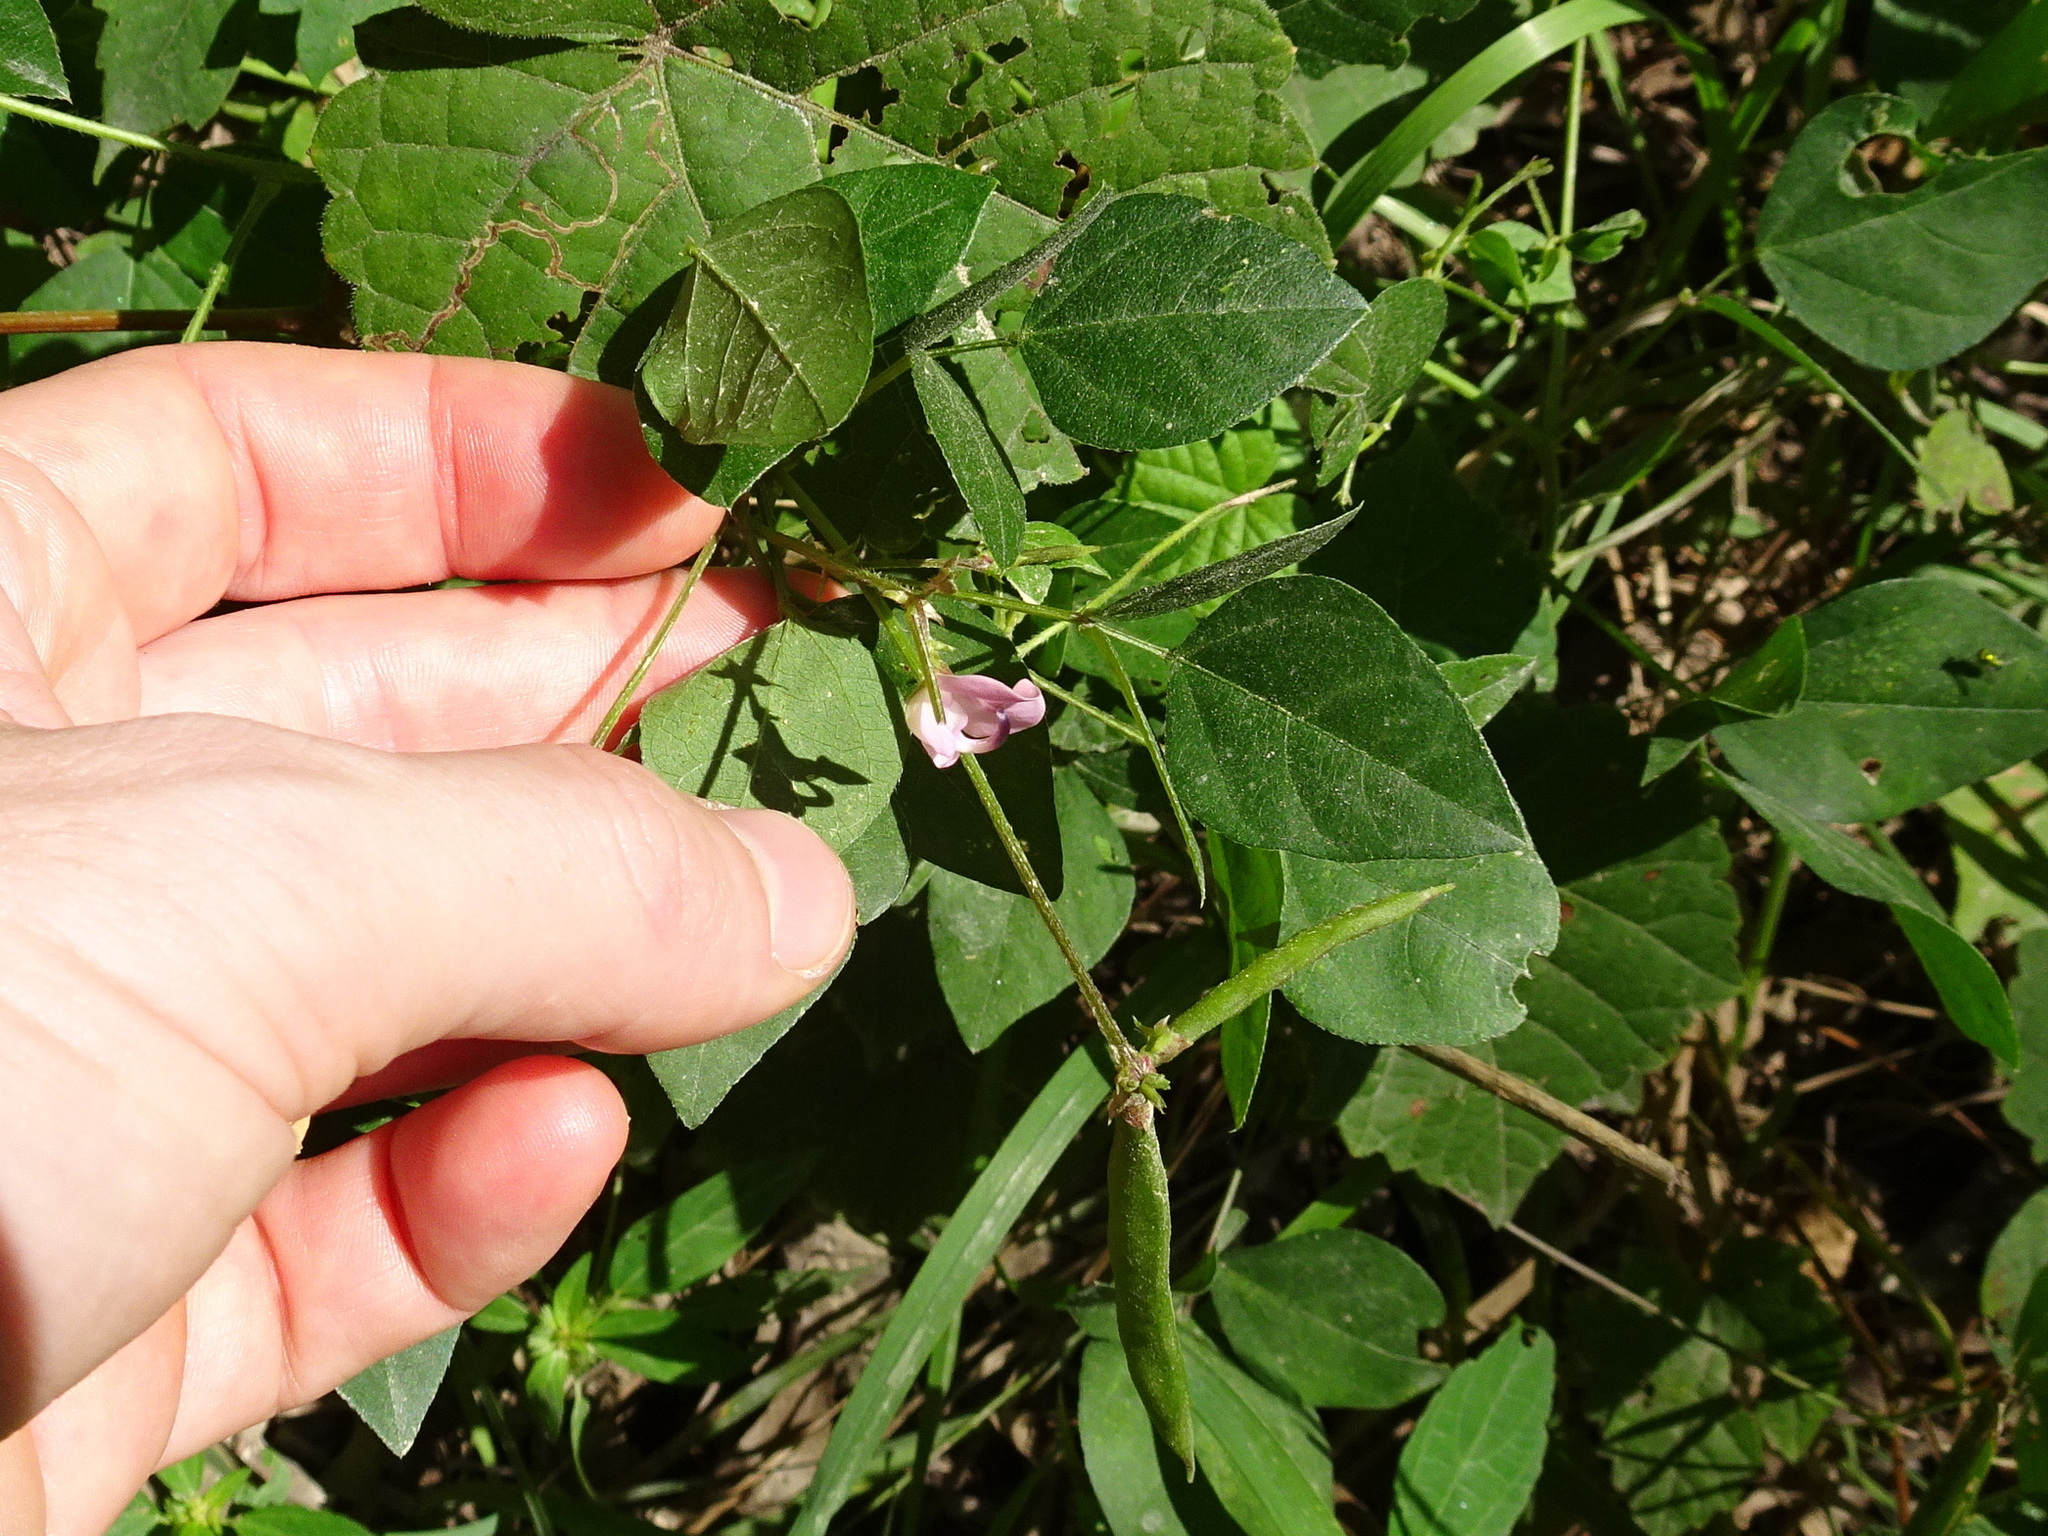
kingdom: Plantae
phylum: Tracheophyta
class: Magnoliopsida
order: Fabales
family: Fabaceae
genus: Strophostyles
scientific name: Strophostyles helvola
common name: Trailing wild bean
